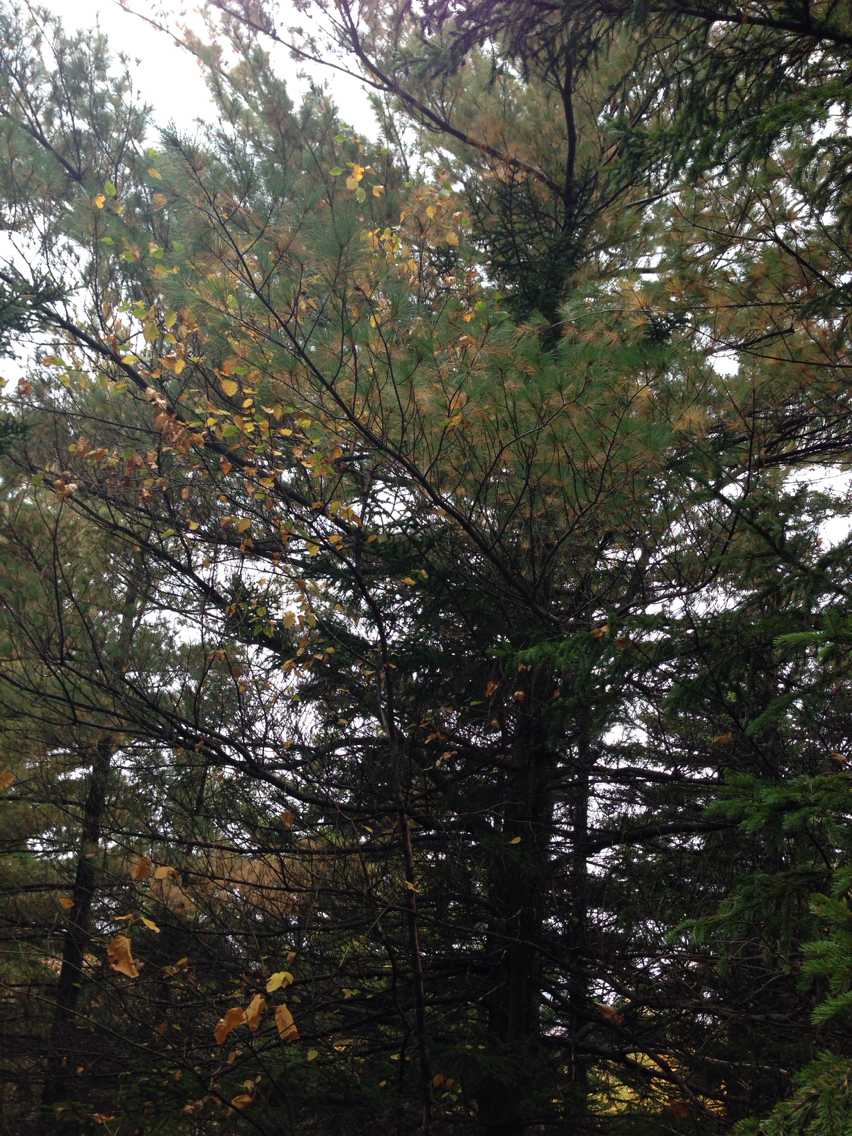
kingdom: Plantae
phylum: Tracheophyta
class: Pinopsida
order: Pinales
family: Pinaceae
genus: Pinus
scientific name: Pinus strobus
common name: Weymouth pine
